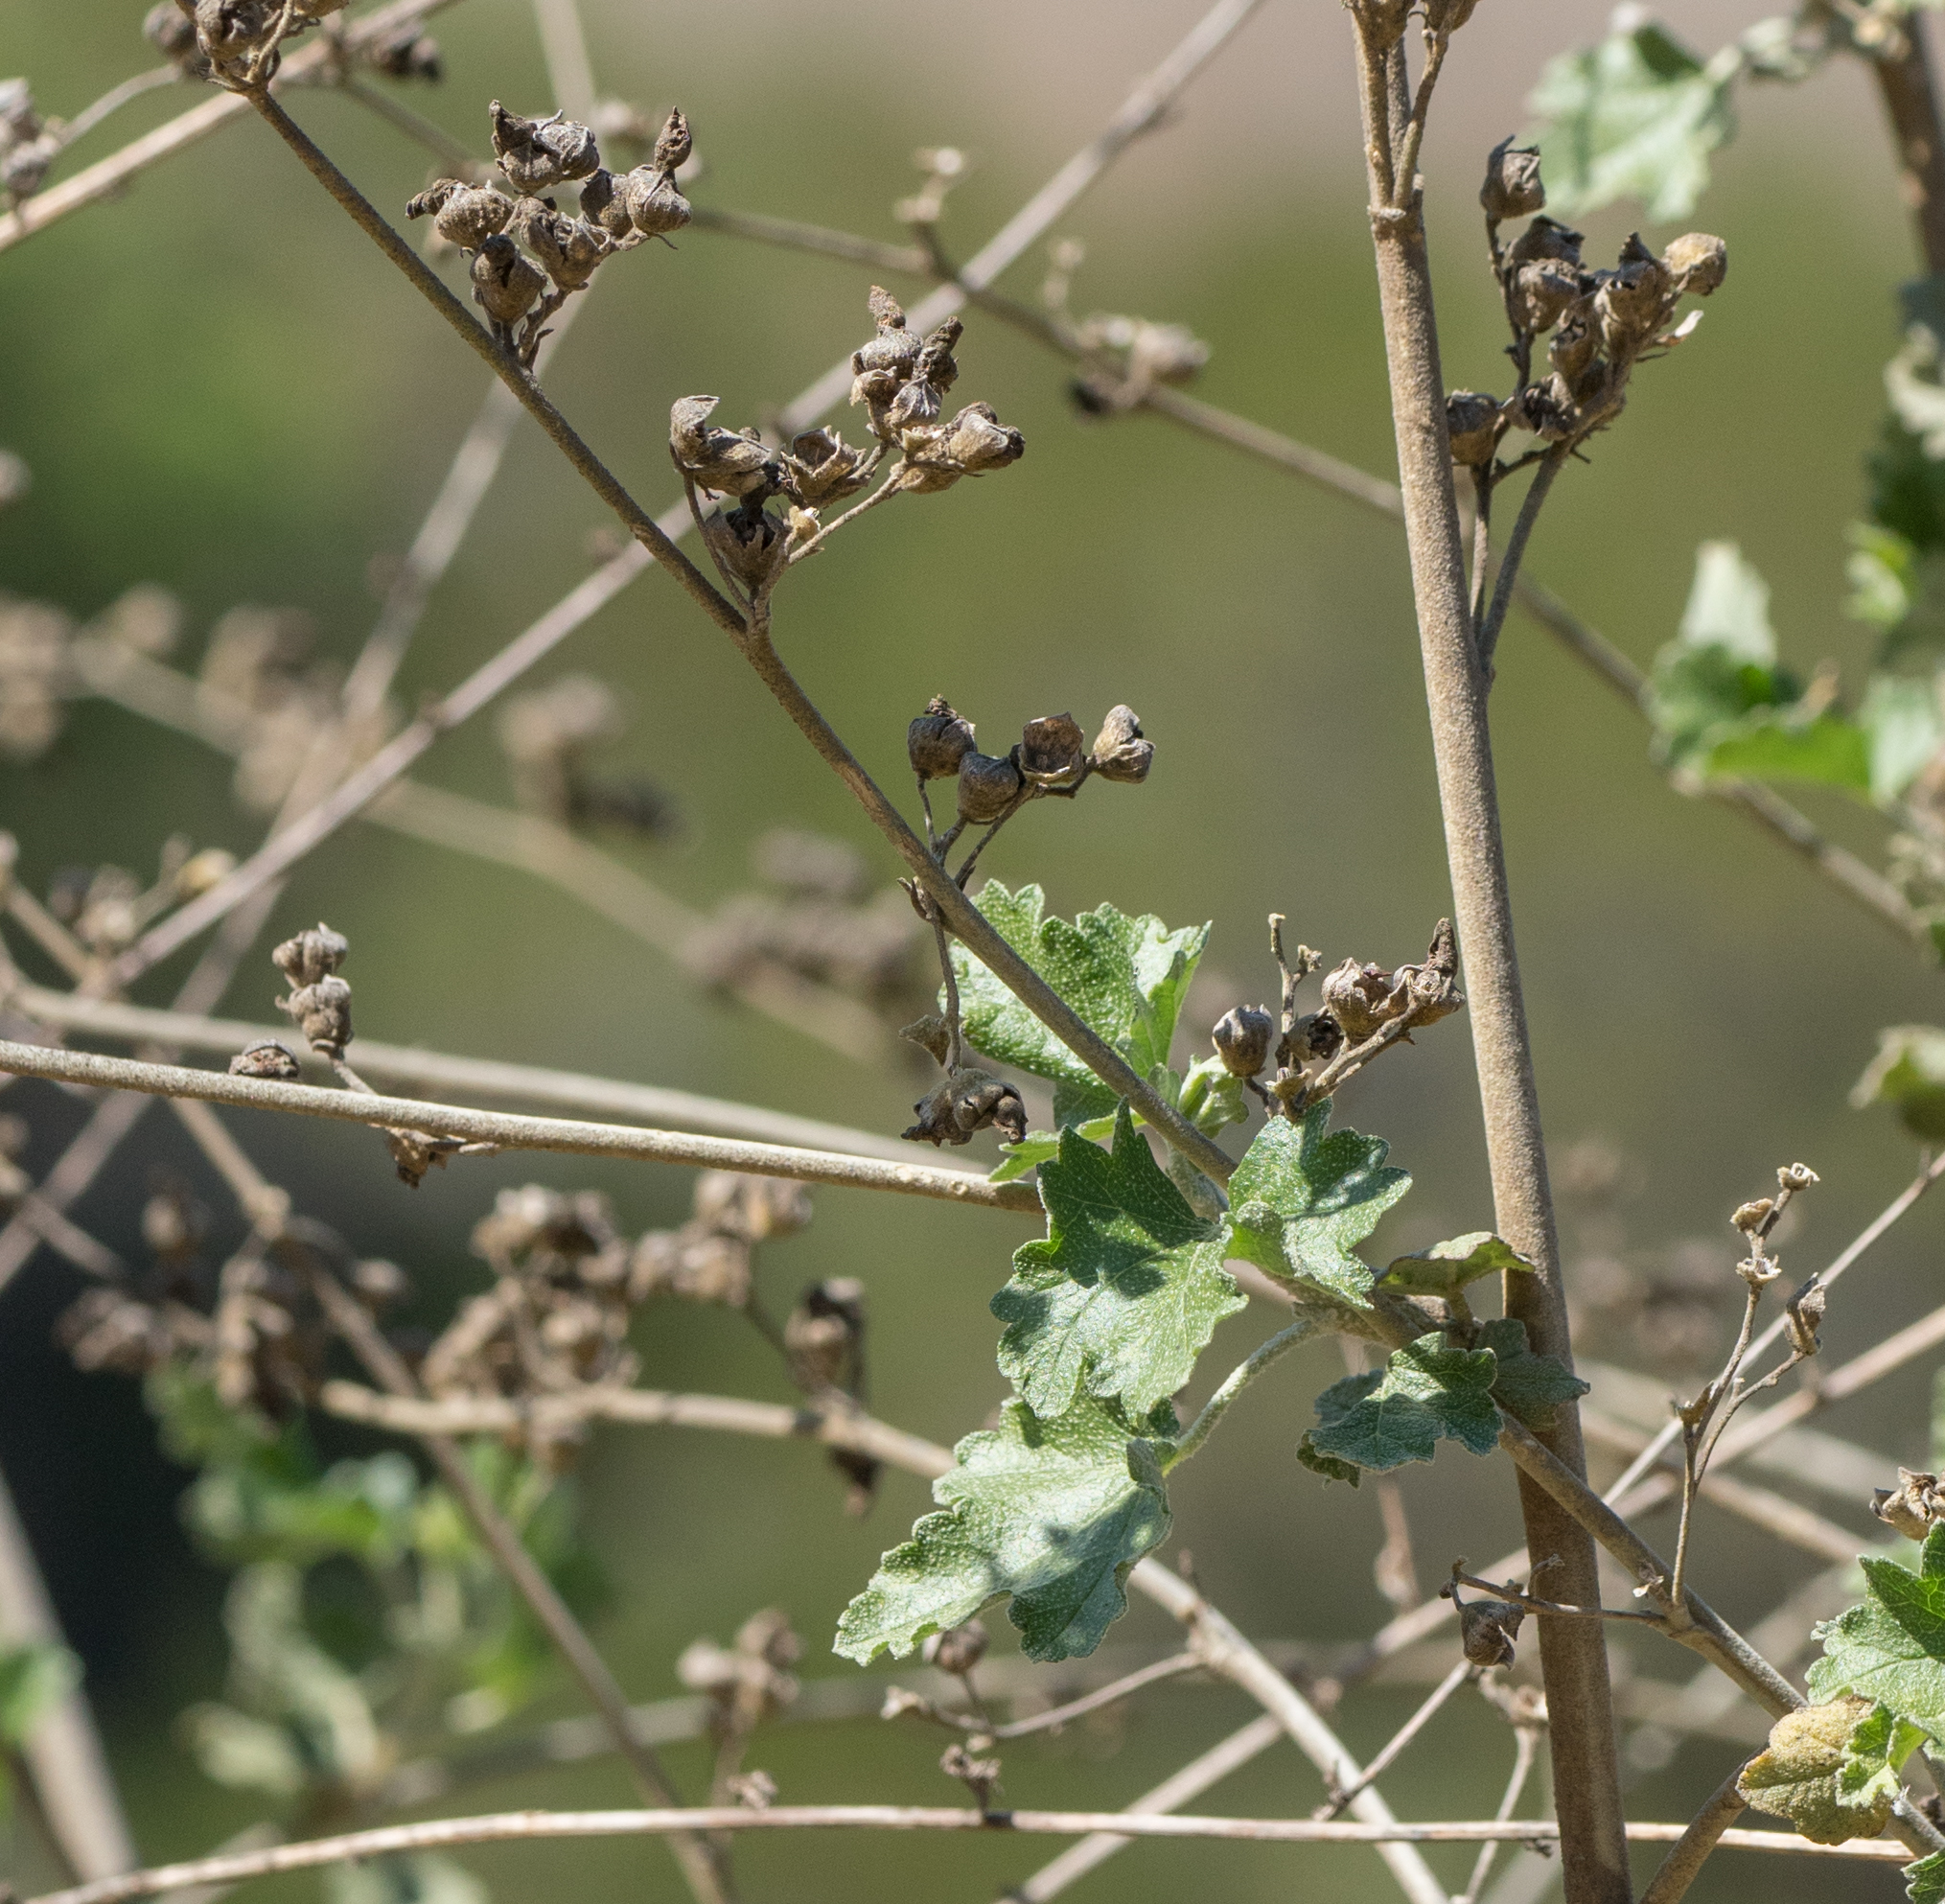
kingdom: Plantae
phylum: Tracheophyta
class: Magnoliopsida
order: Malvales
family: Malvaceae
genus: Malacothamnus
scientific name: Malacothamnus fasciculatus
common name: Sant cruz island bush-mallow
